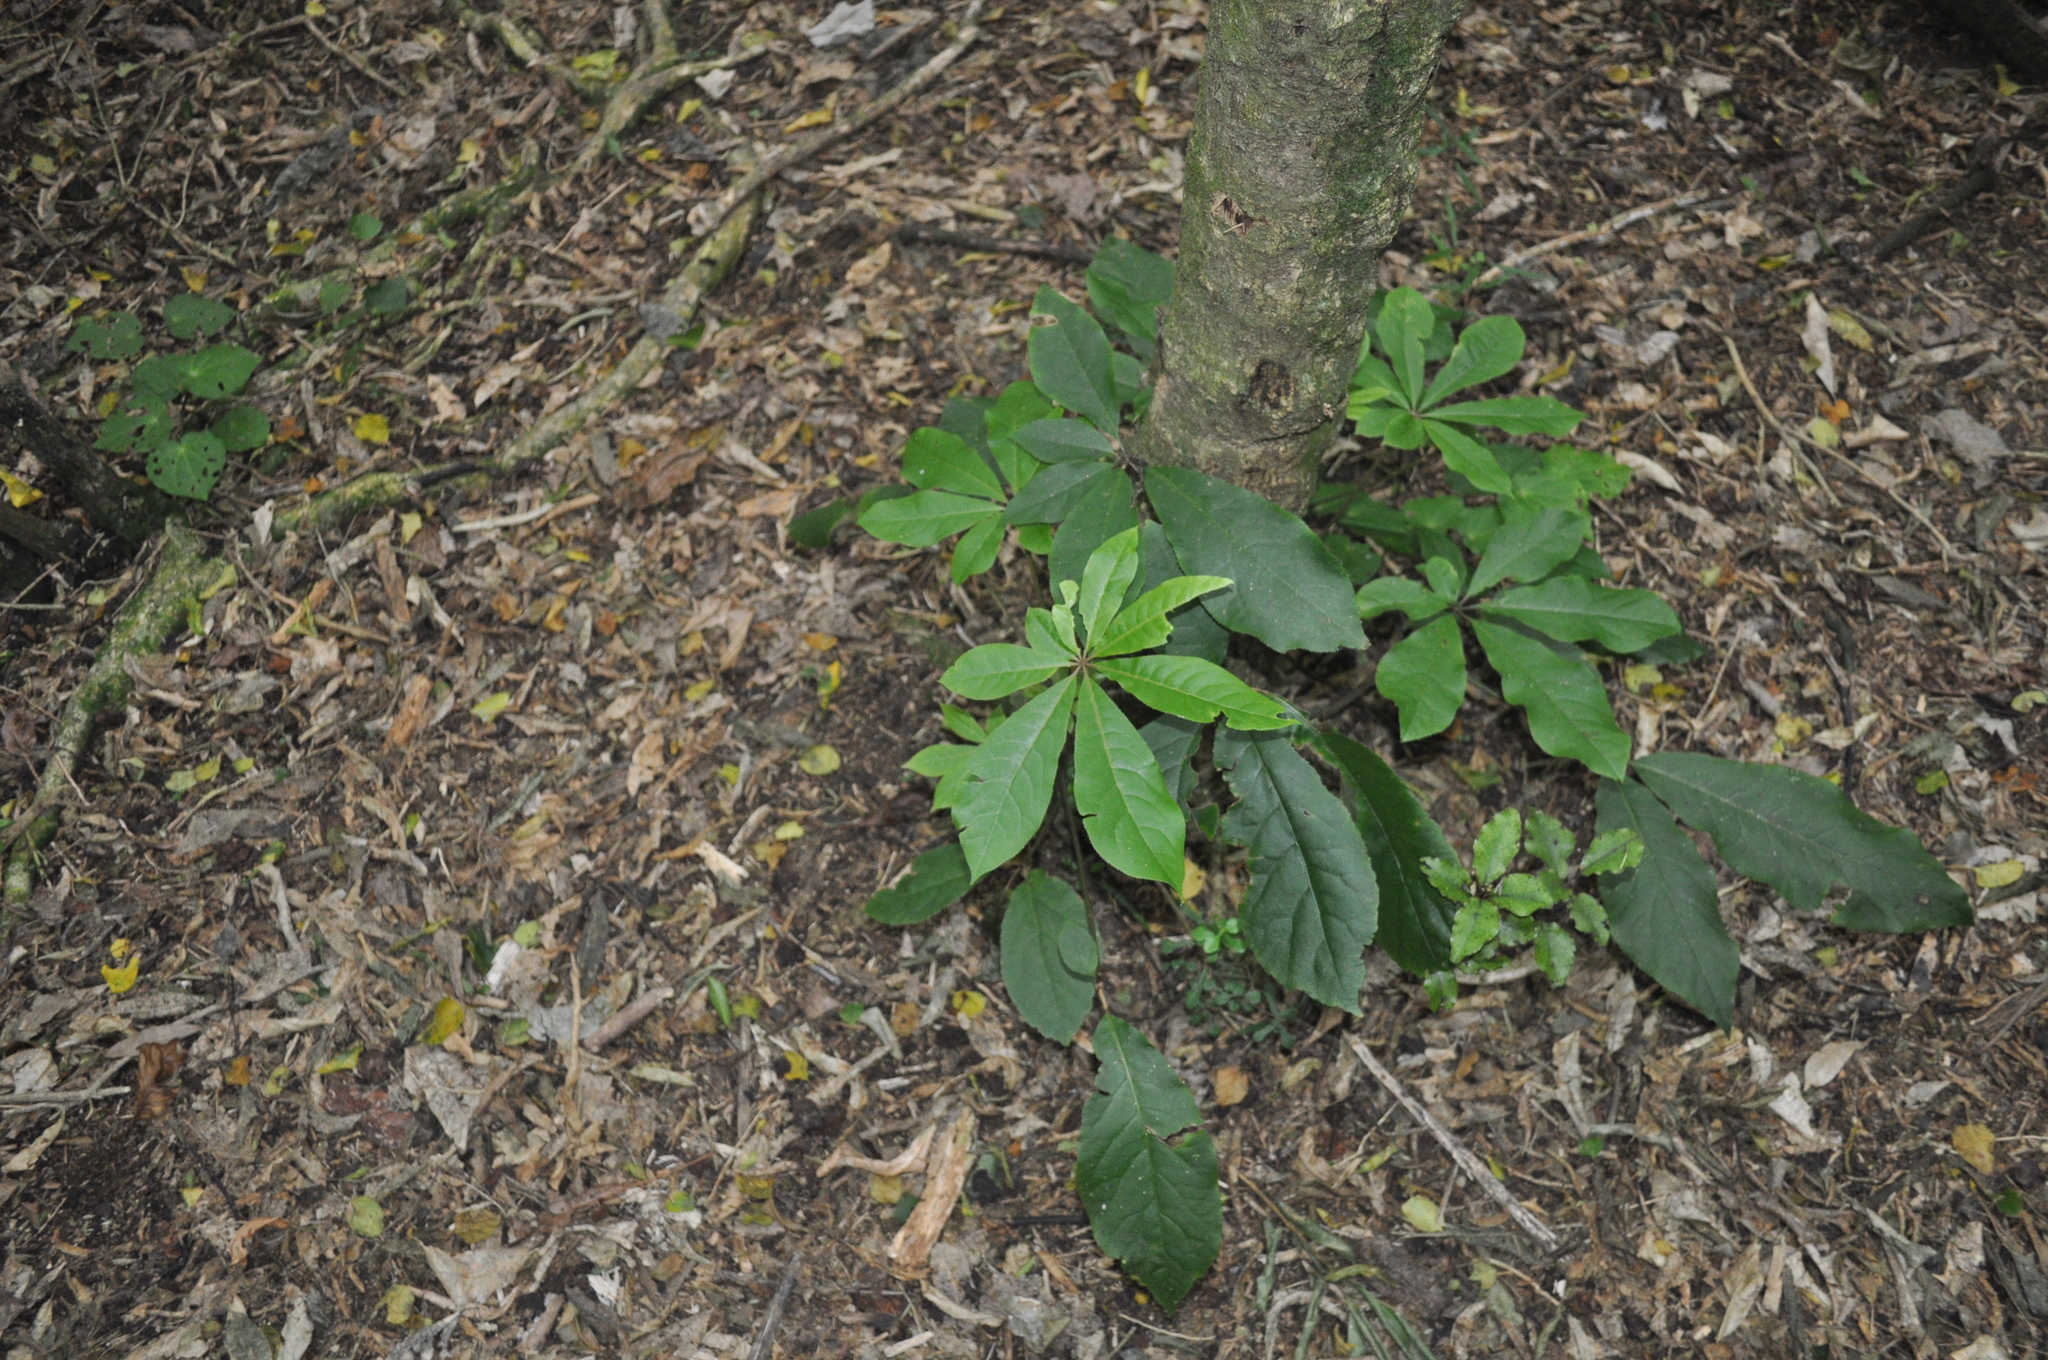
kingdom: Plantae
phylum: Tracheophyta
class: Magnoliopsida
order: Apiales
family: Araliaceae
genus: Neopanax
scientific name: Neopanax arboreus
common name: Five-fingers
